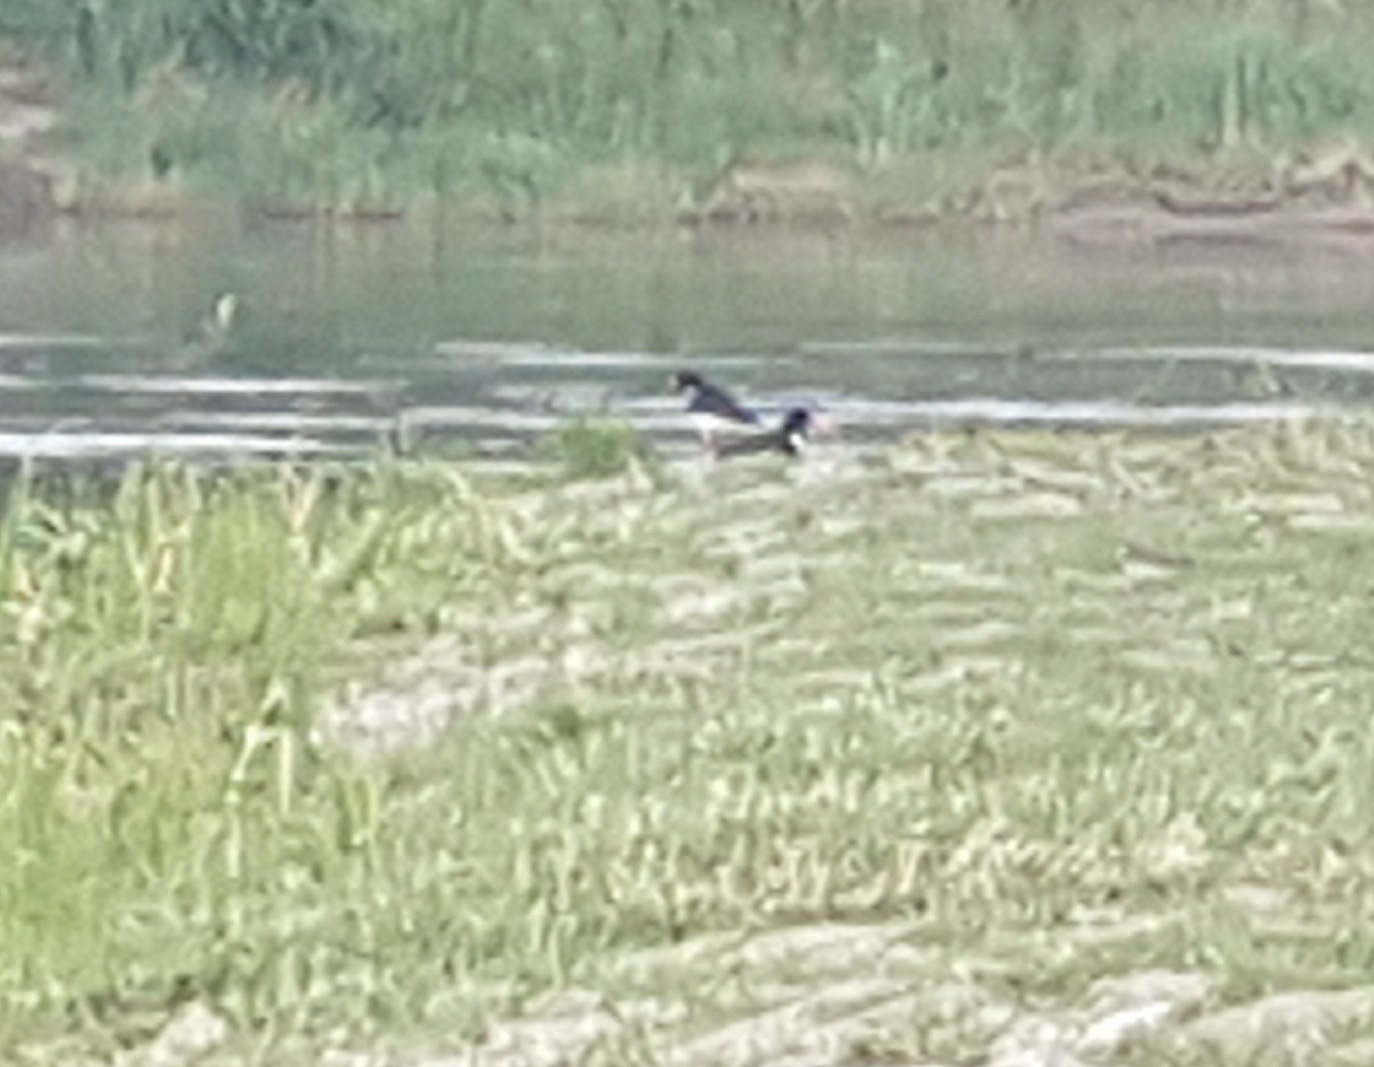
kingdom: Animalia
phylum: Chordata
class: Aves
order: Charadriiformes
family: Haematopodidae
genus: Haematopus
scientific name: Haematopus ostralegus
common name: Eurasian oystercatcher
